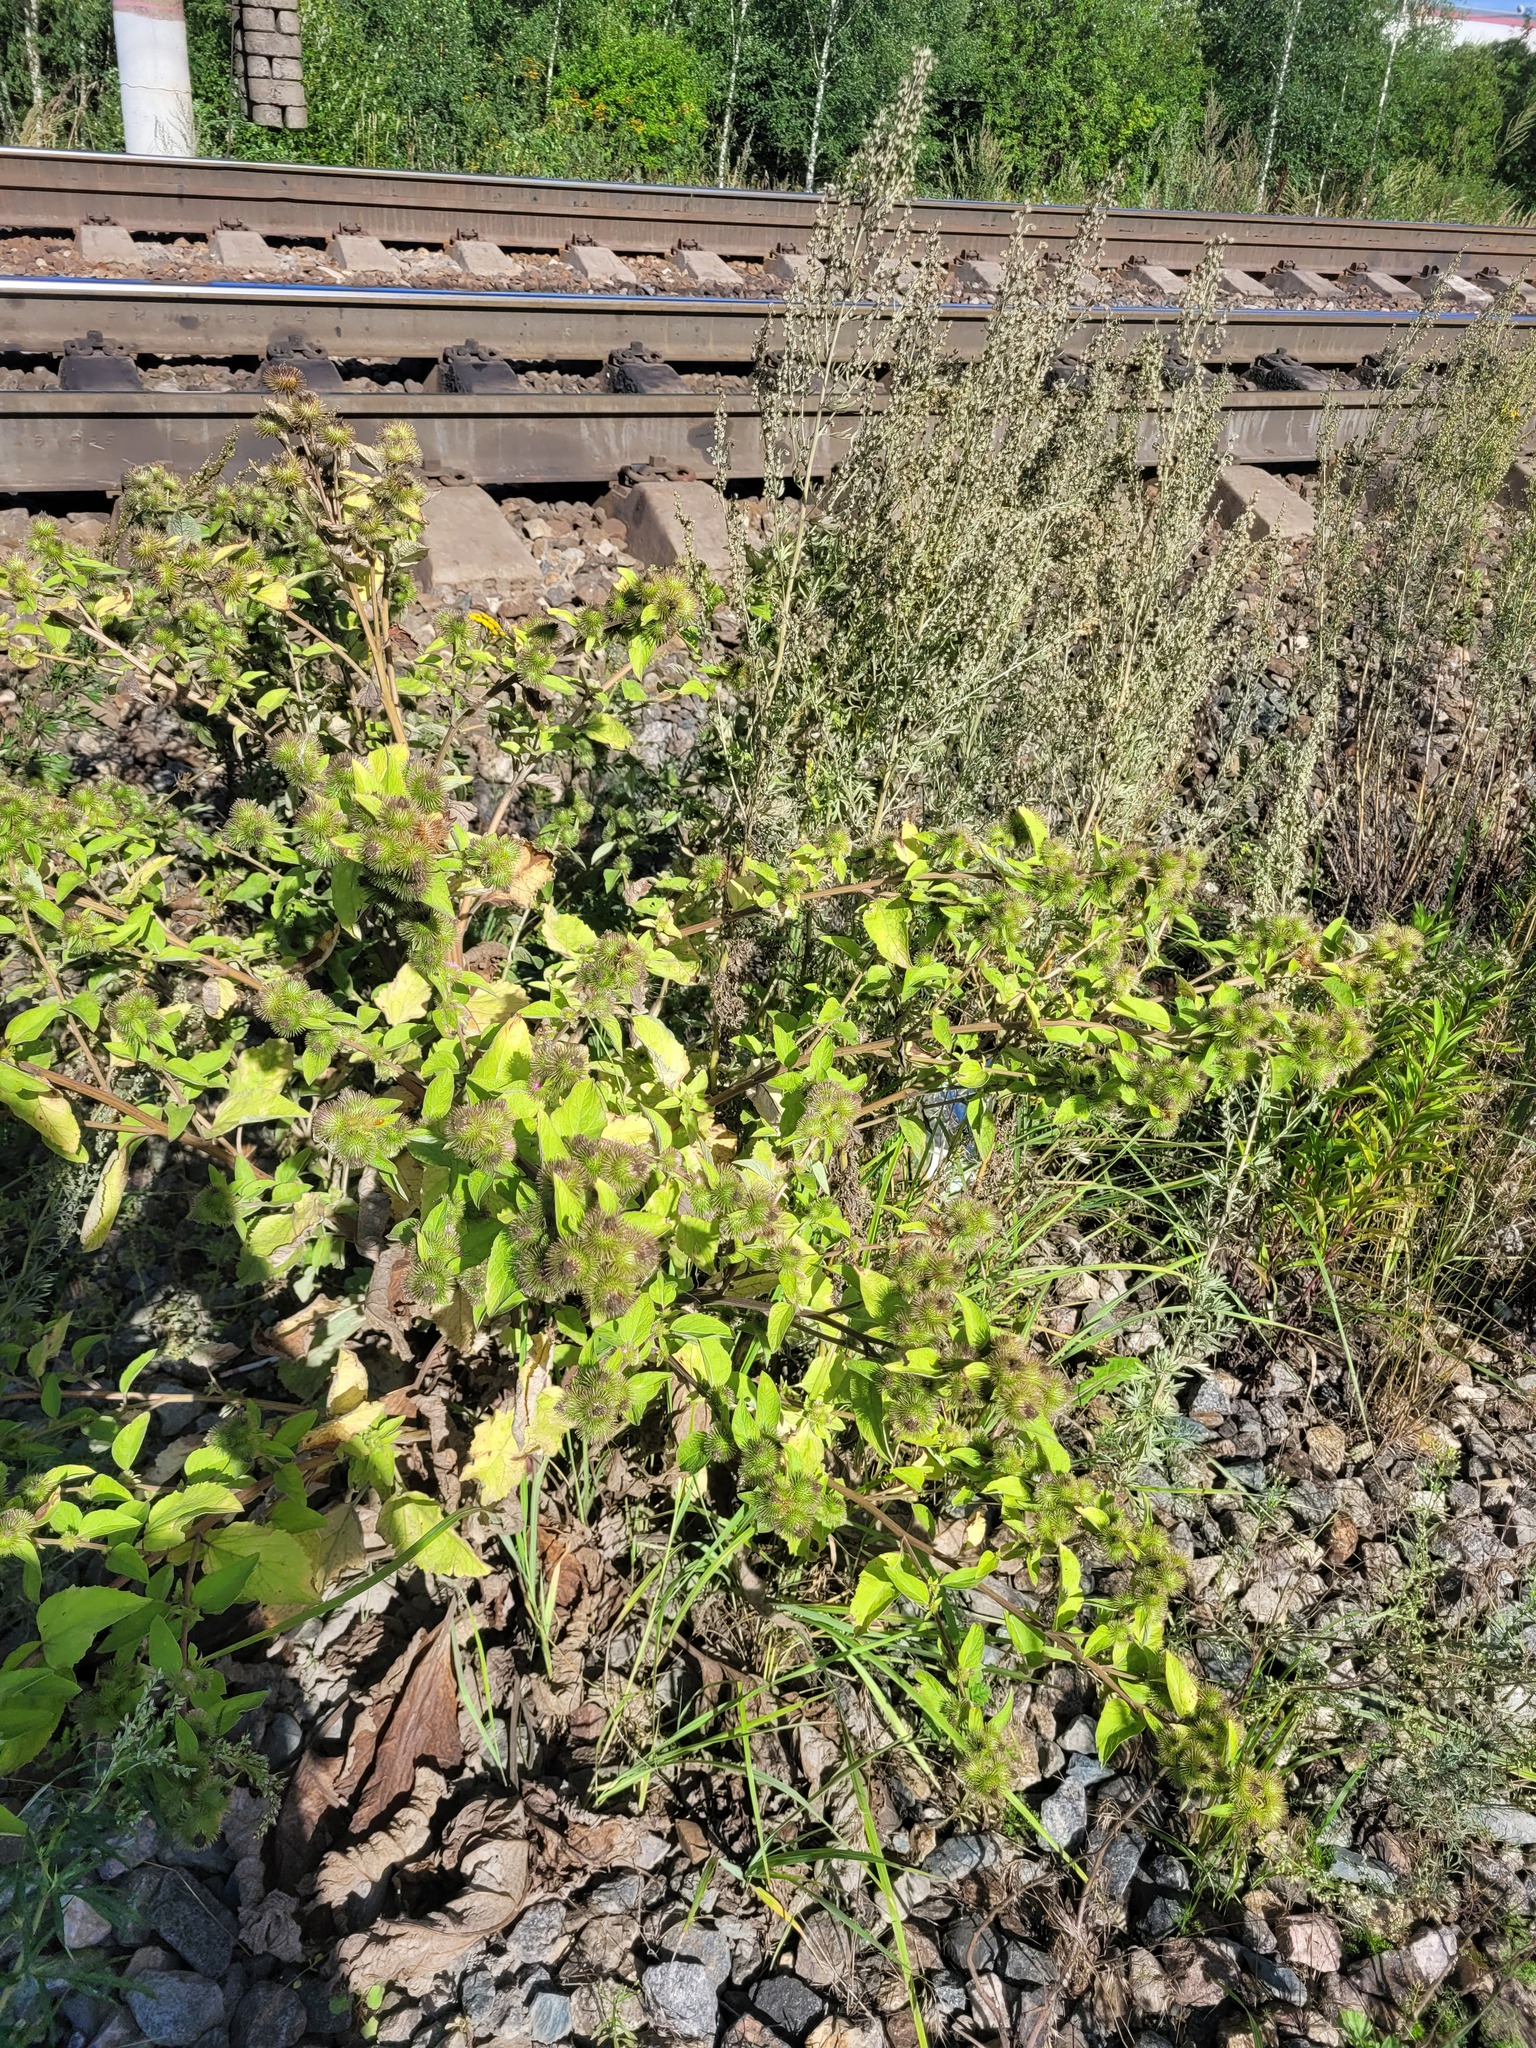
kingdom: Plantae
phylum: Tracheophyta
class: Magnoliopsida
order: Asterales
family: Asteraceae
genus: Arctium
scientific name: Arctium minus
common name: Lesser burdock
